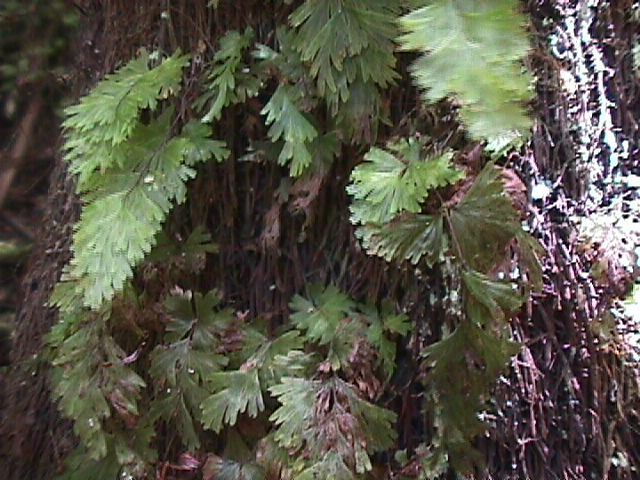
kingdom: Plantae
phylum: Tracheophyta
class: Polypodiopsida
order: Hymenophyllales
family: Hymenophyllaceae
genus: Hymenophyllum
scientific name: Hymenophyllum flabellatum
